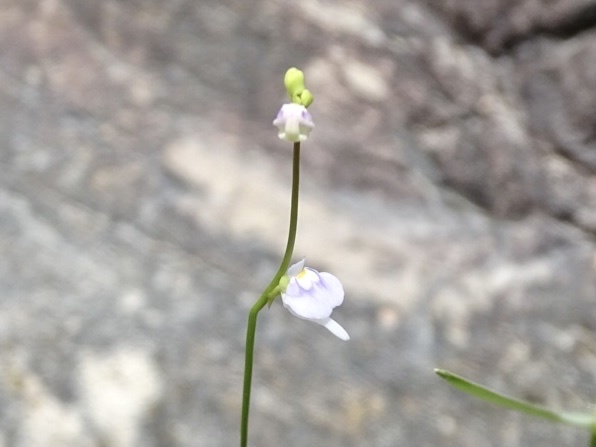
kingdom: Plantae
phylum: Tracheophyta
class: Magnoliopsida
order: Lamiales
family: Lentibulariaceae
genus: Utricularia
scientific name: Utricularia caerulea
